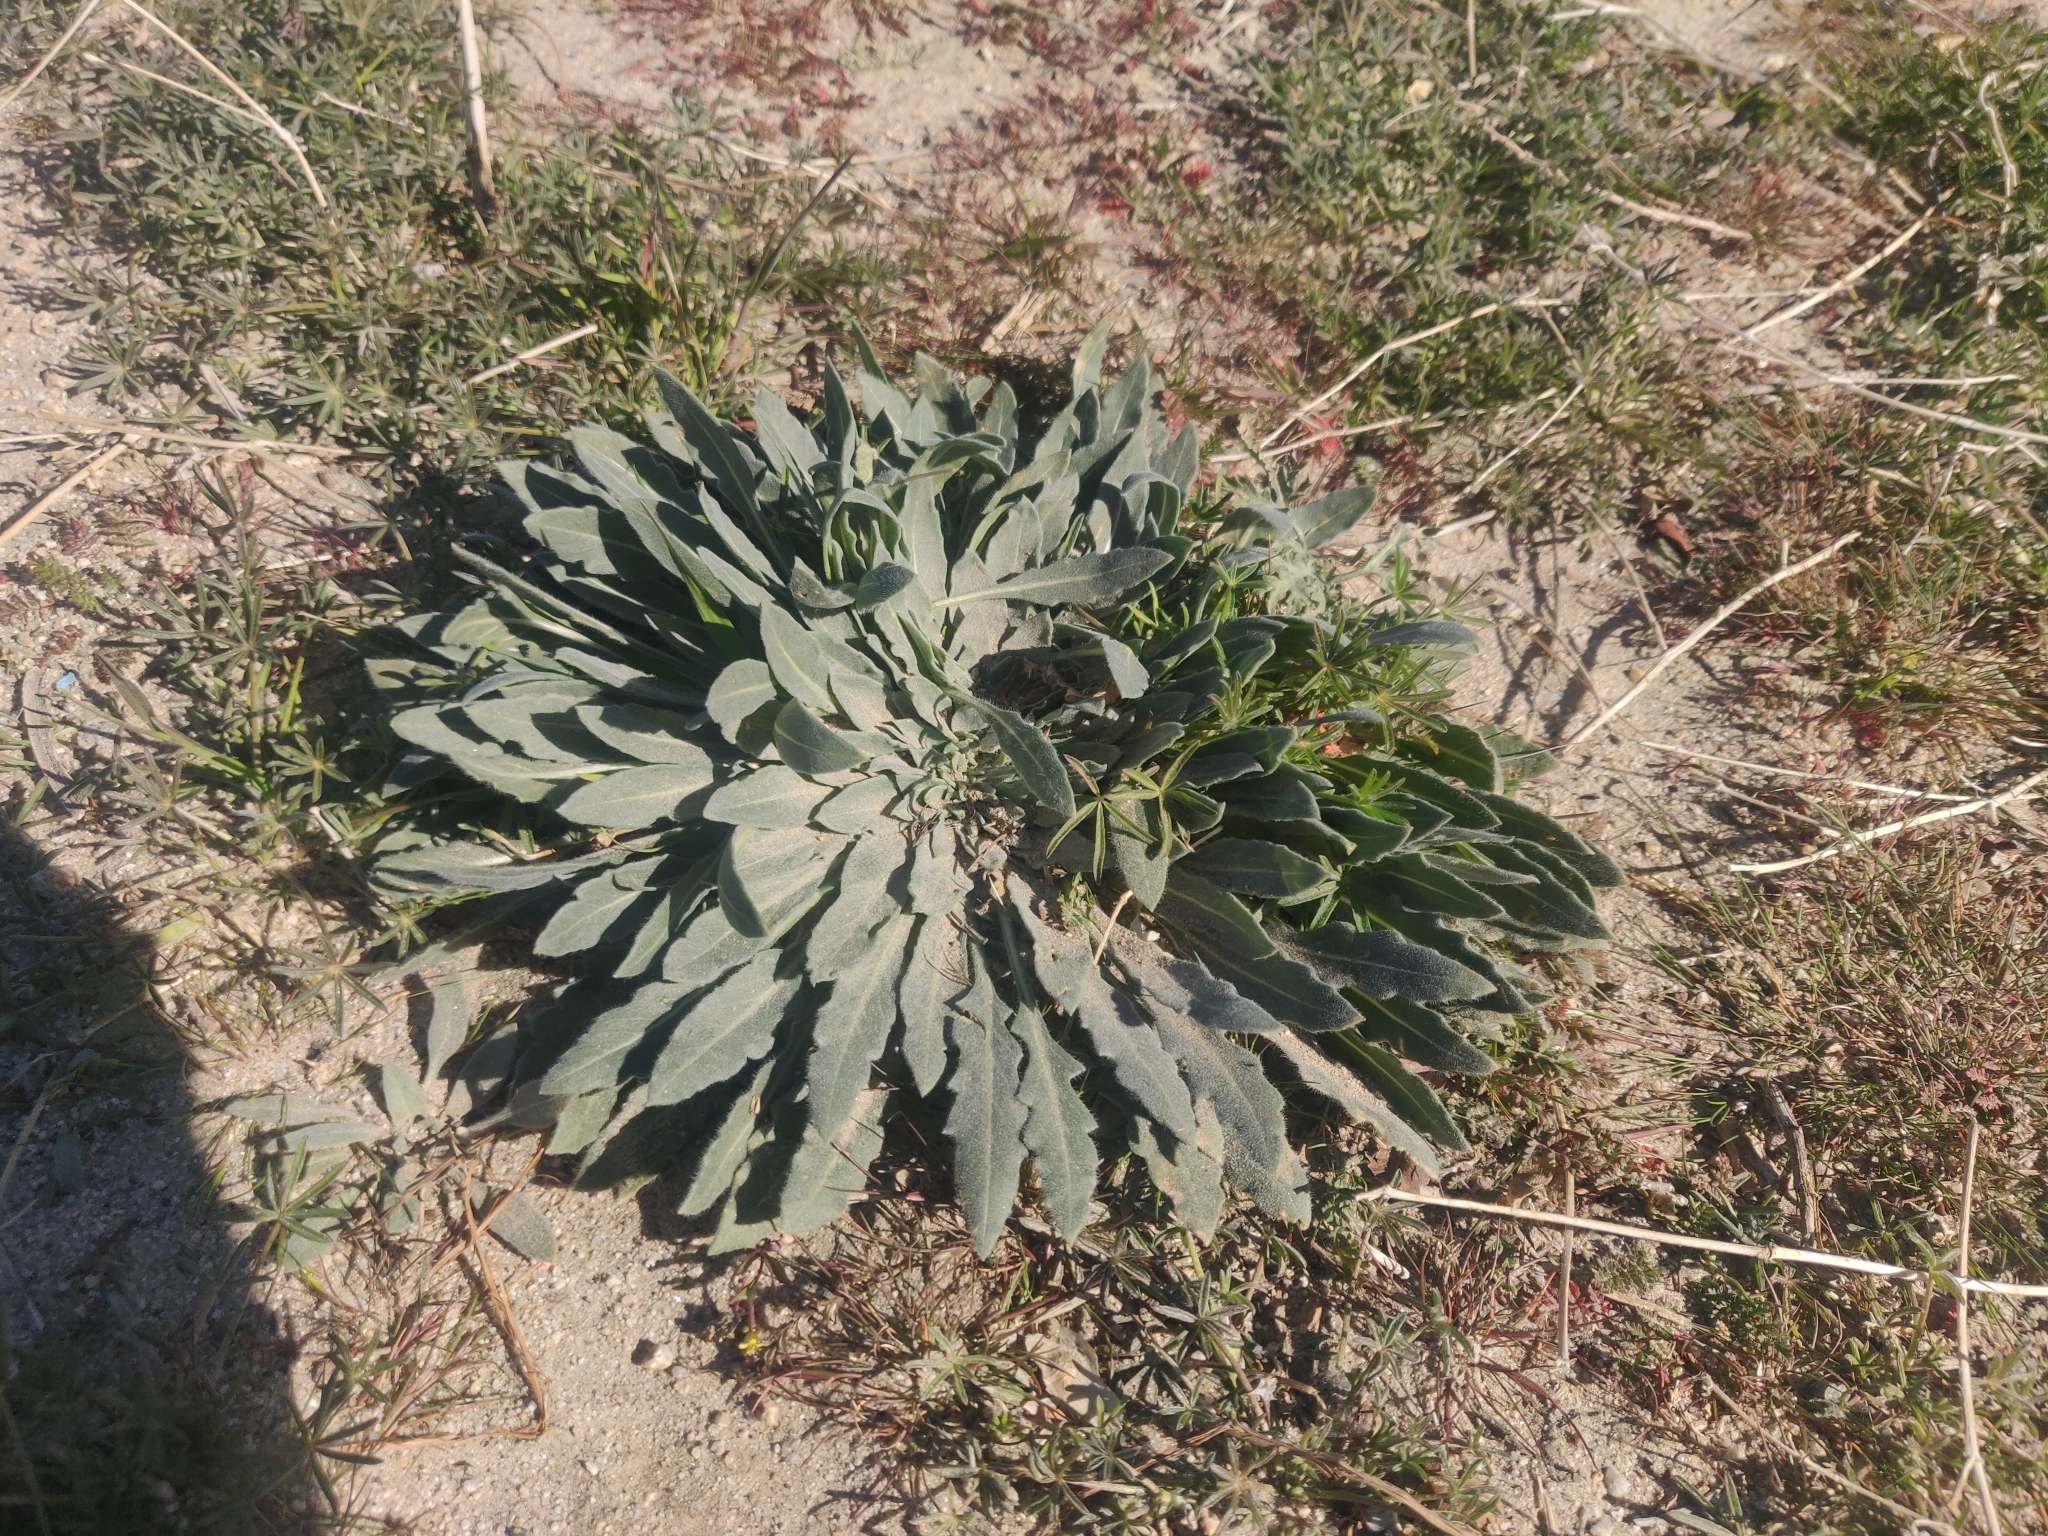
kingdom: Plantae
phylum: Tracheophyta
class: Magnoliopsida
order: Myrtales
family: Onagraceae
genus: Oenothera
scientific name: Oenothera californica
